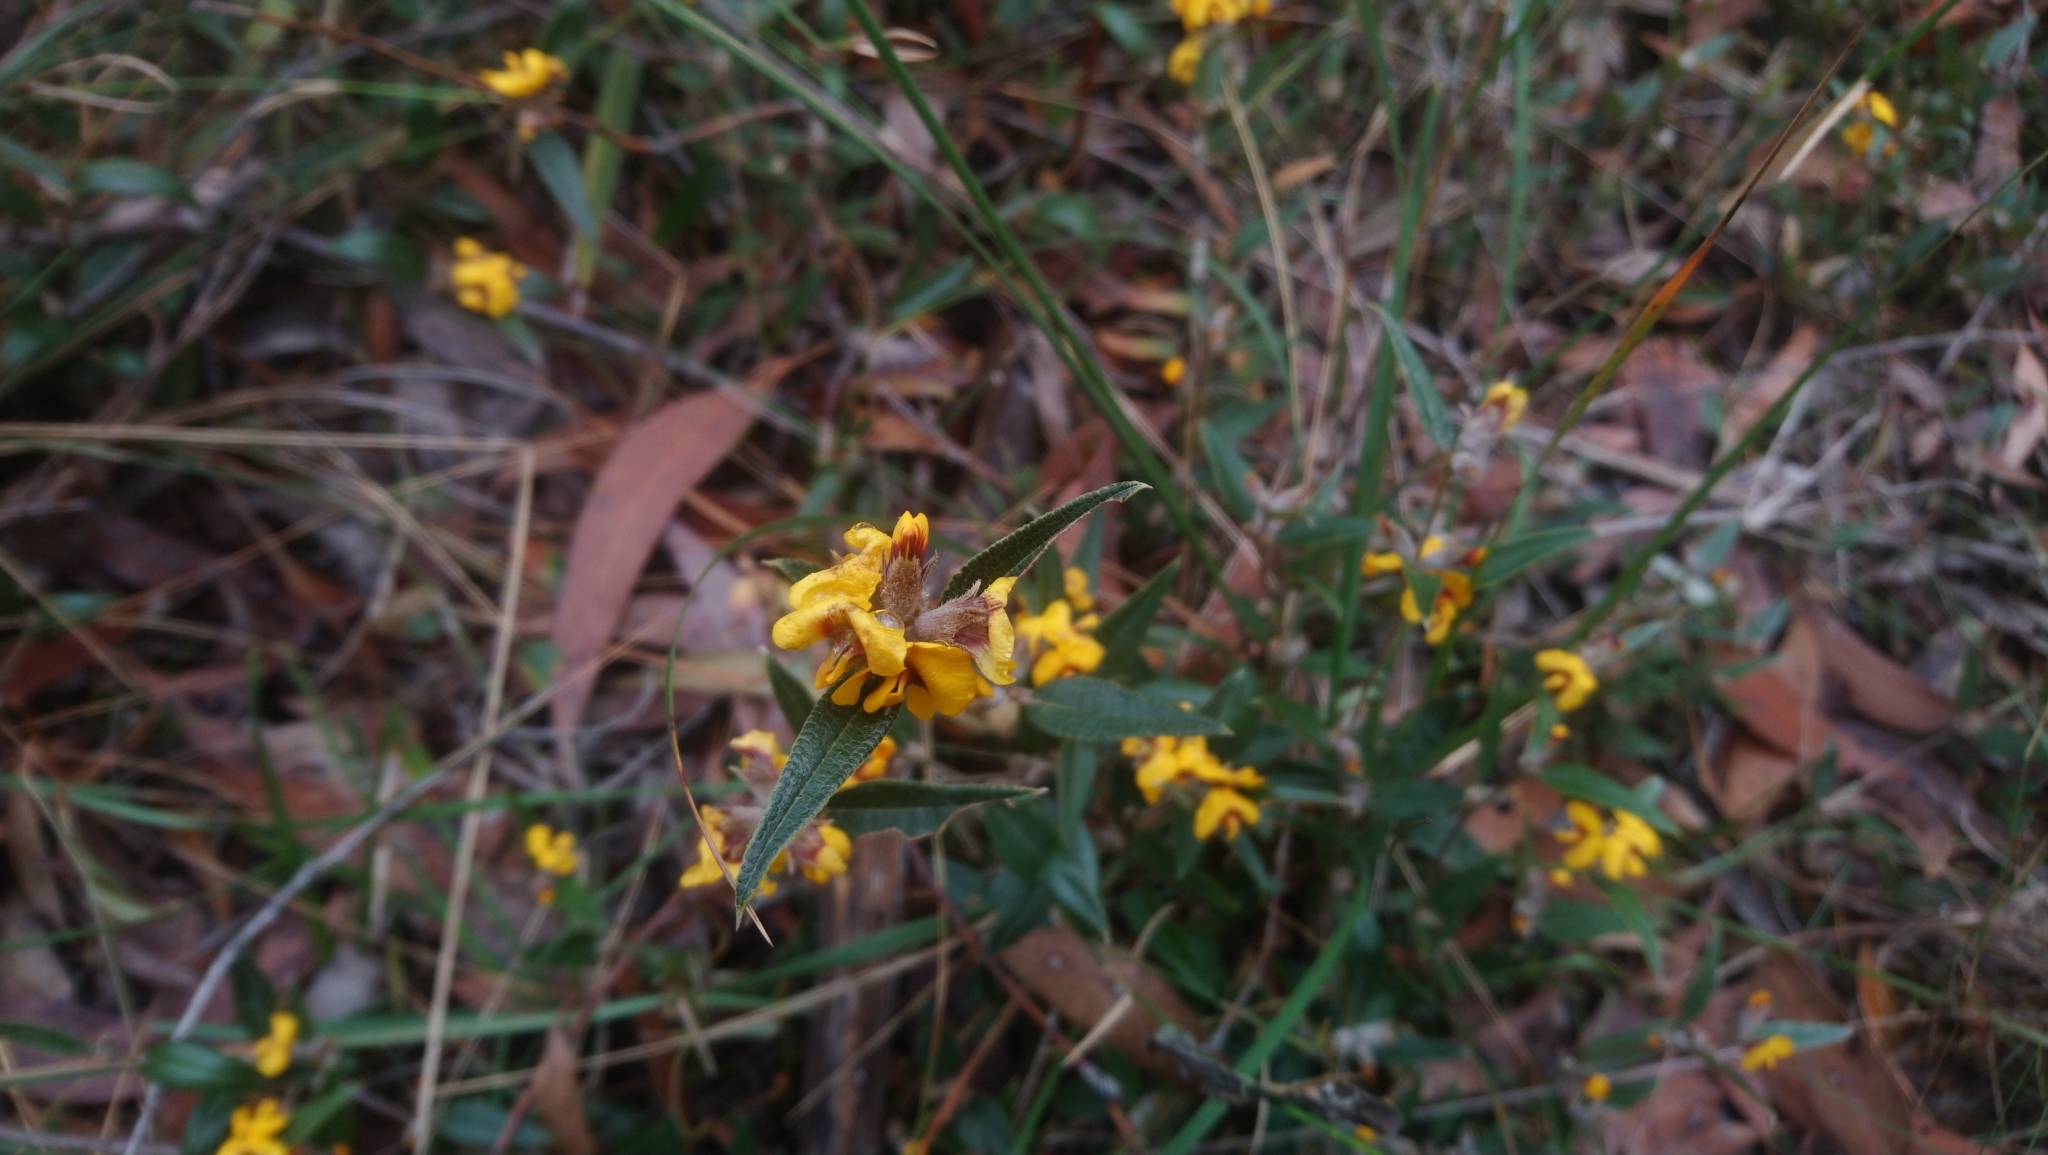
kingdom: Plantae
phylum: Tracheophyta
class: Magnoliopsida
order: Fabales
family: Fabaceae
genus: Mirbelia
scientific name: Mirbelia platylobioides
